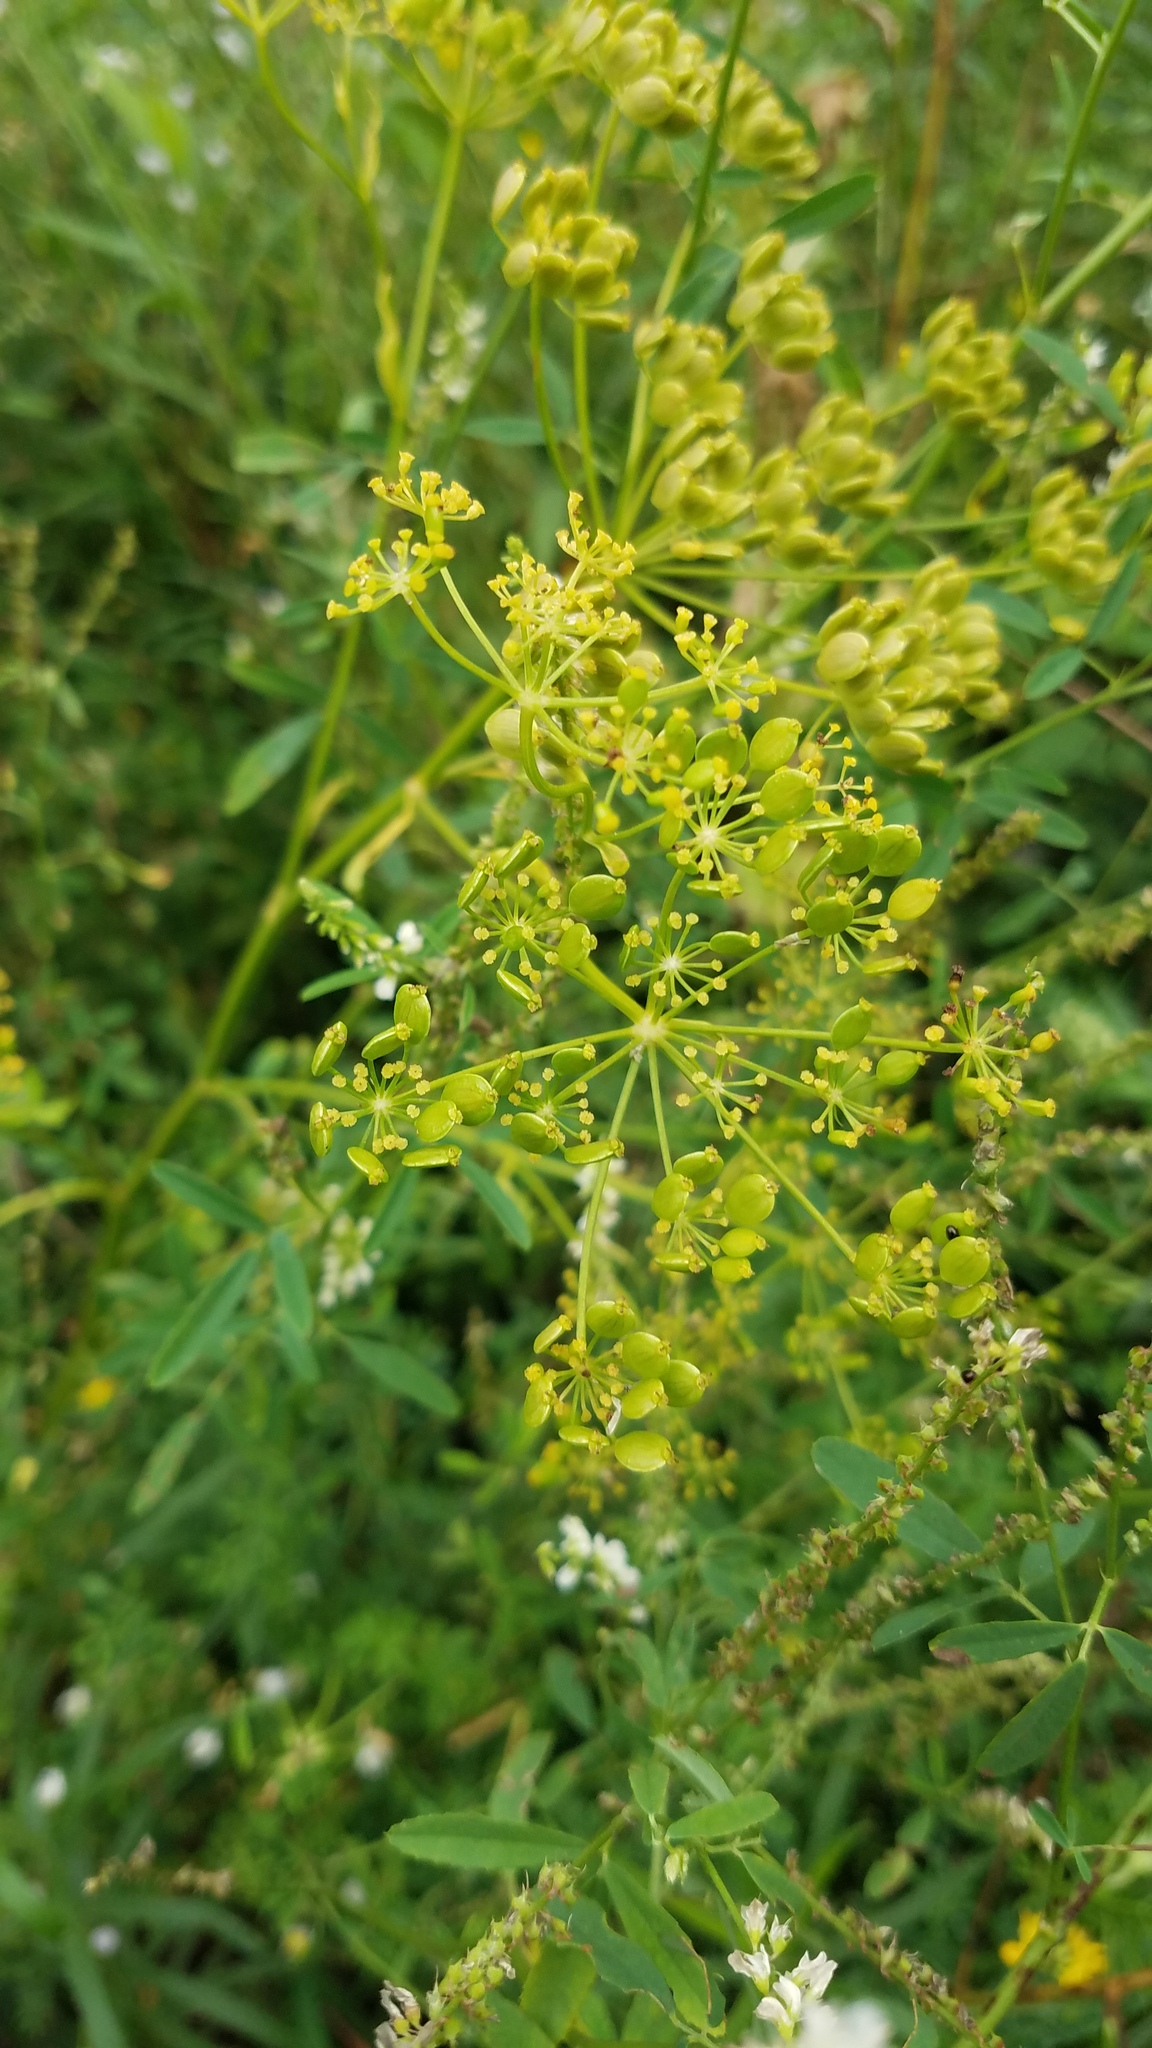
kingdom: Plantae
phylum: Tracheophyta
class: Magnoliopsida
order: Apiales
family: Apiaceae
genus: Pastinaca
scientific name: Pastinaca sativa
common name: Wild parsnip
